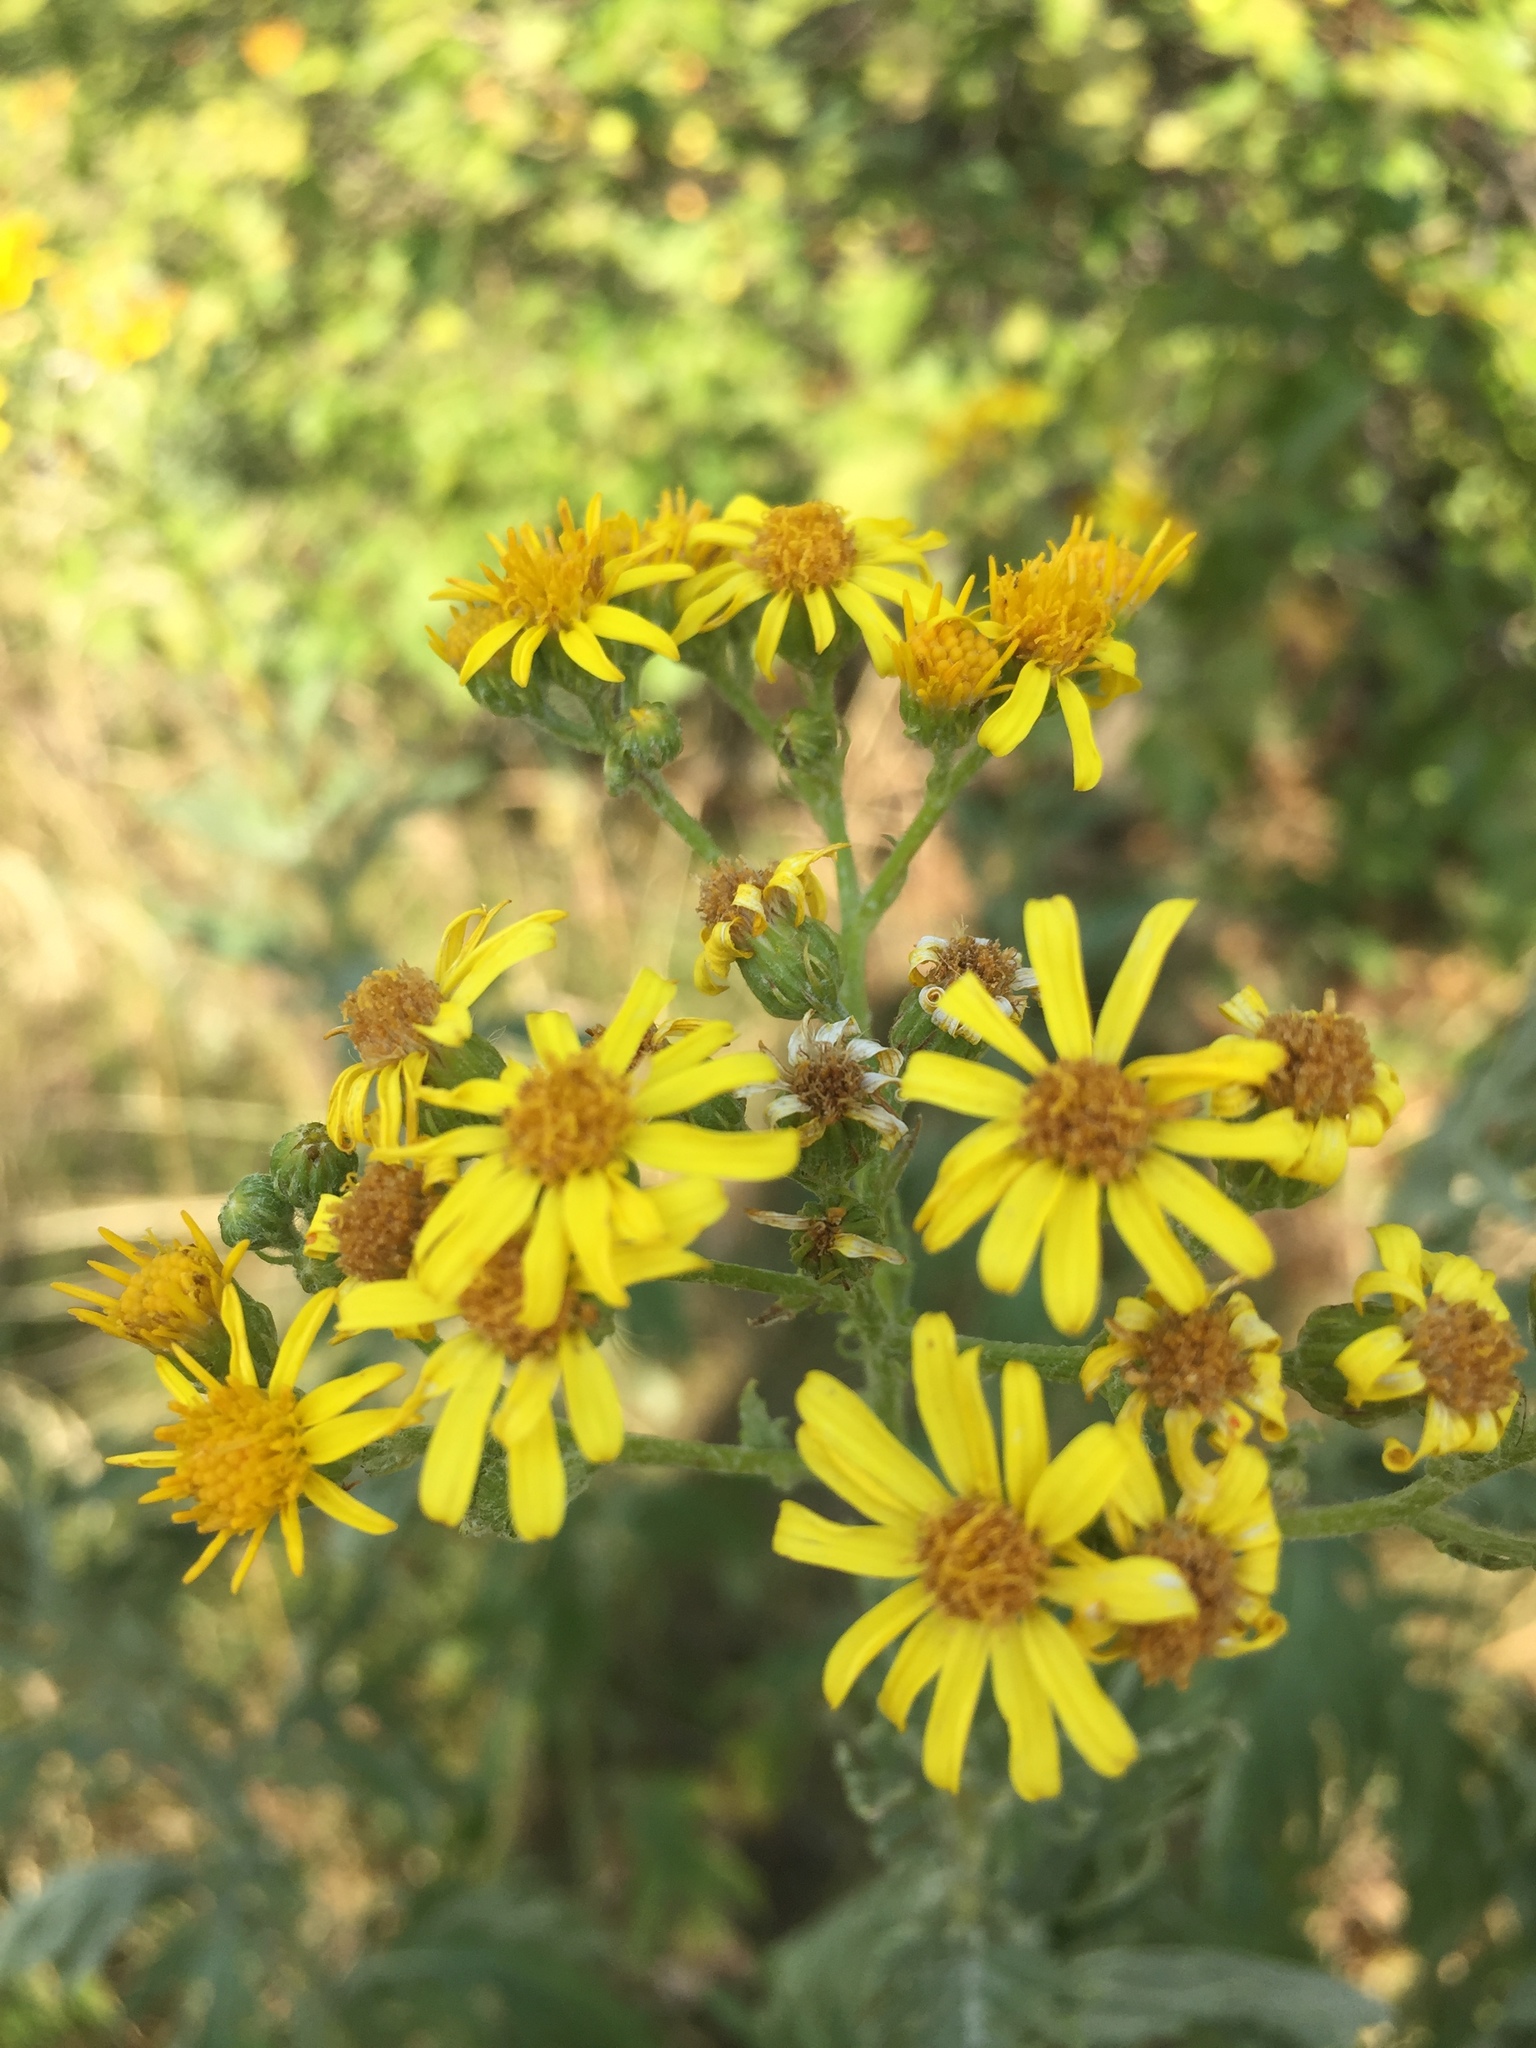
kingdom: Plantae
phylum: Tracheophyta
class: Magnoliopsida
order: Asterales
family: Asteraceae
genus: Jacobaea
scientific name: Jacobaea vulgaris
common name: Stinking willie
